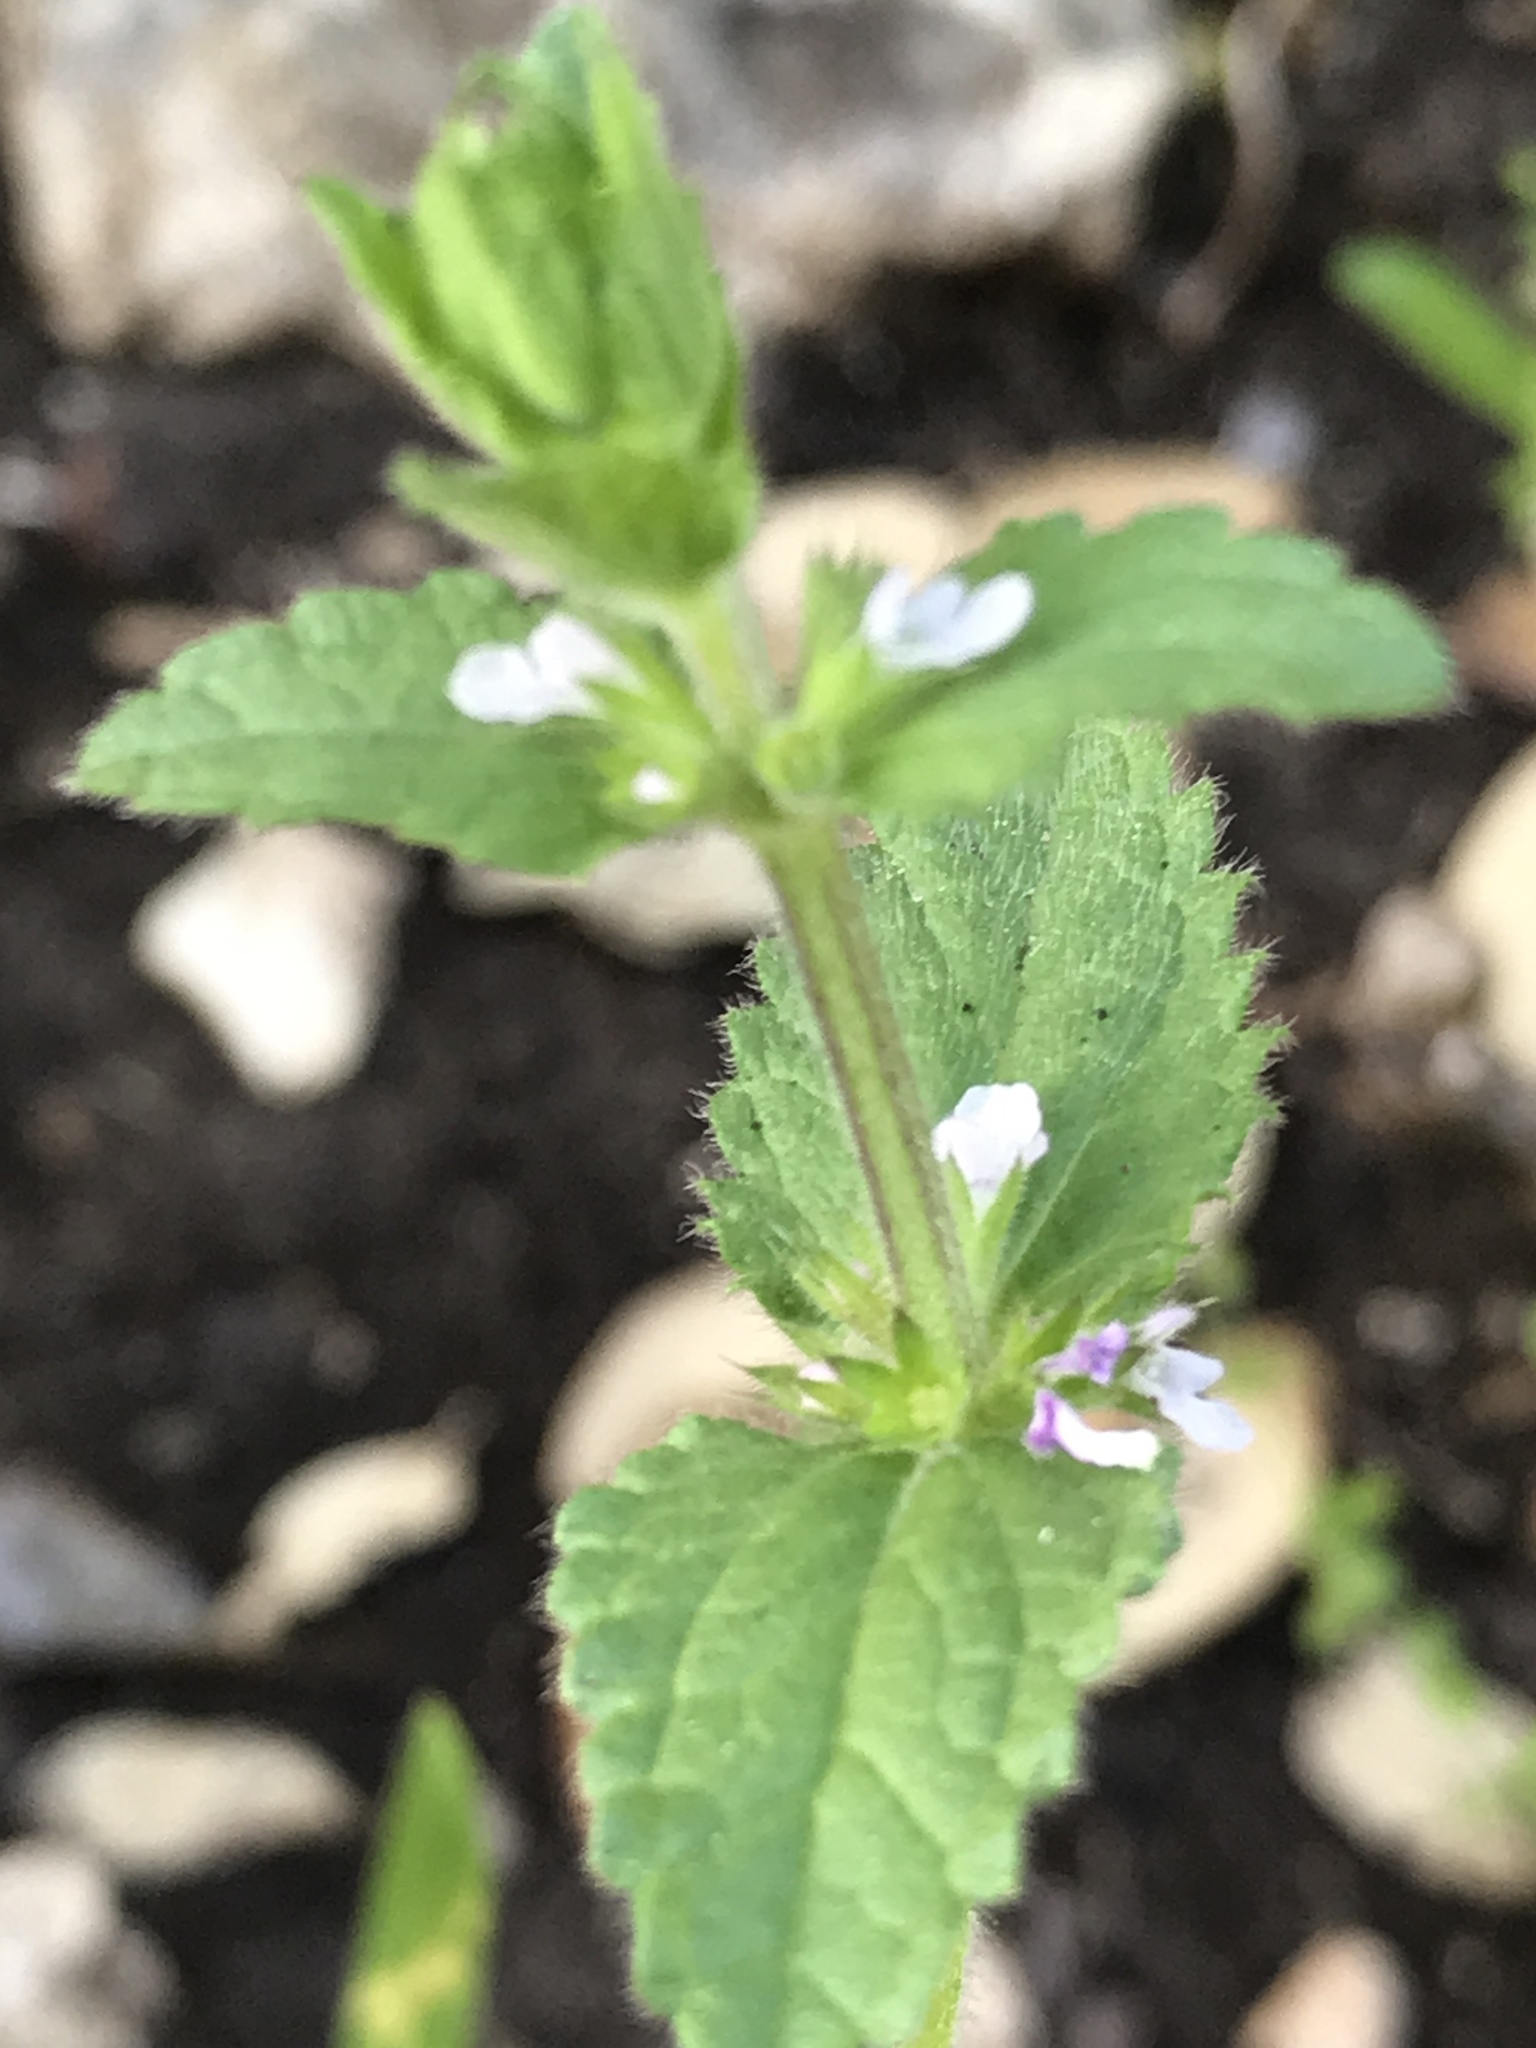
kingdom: Plantae
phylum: Tracheophyta
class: Magnoliopsida
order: Lamiales
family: Lamiaceae
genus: Stachys
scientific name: Stachys
